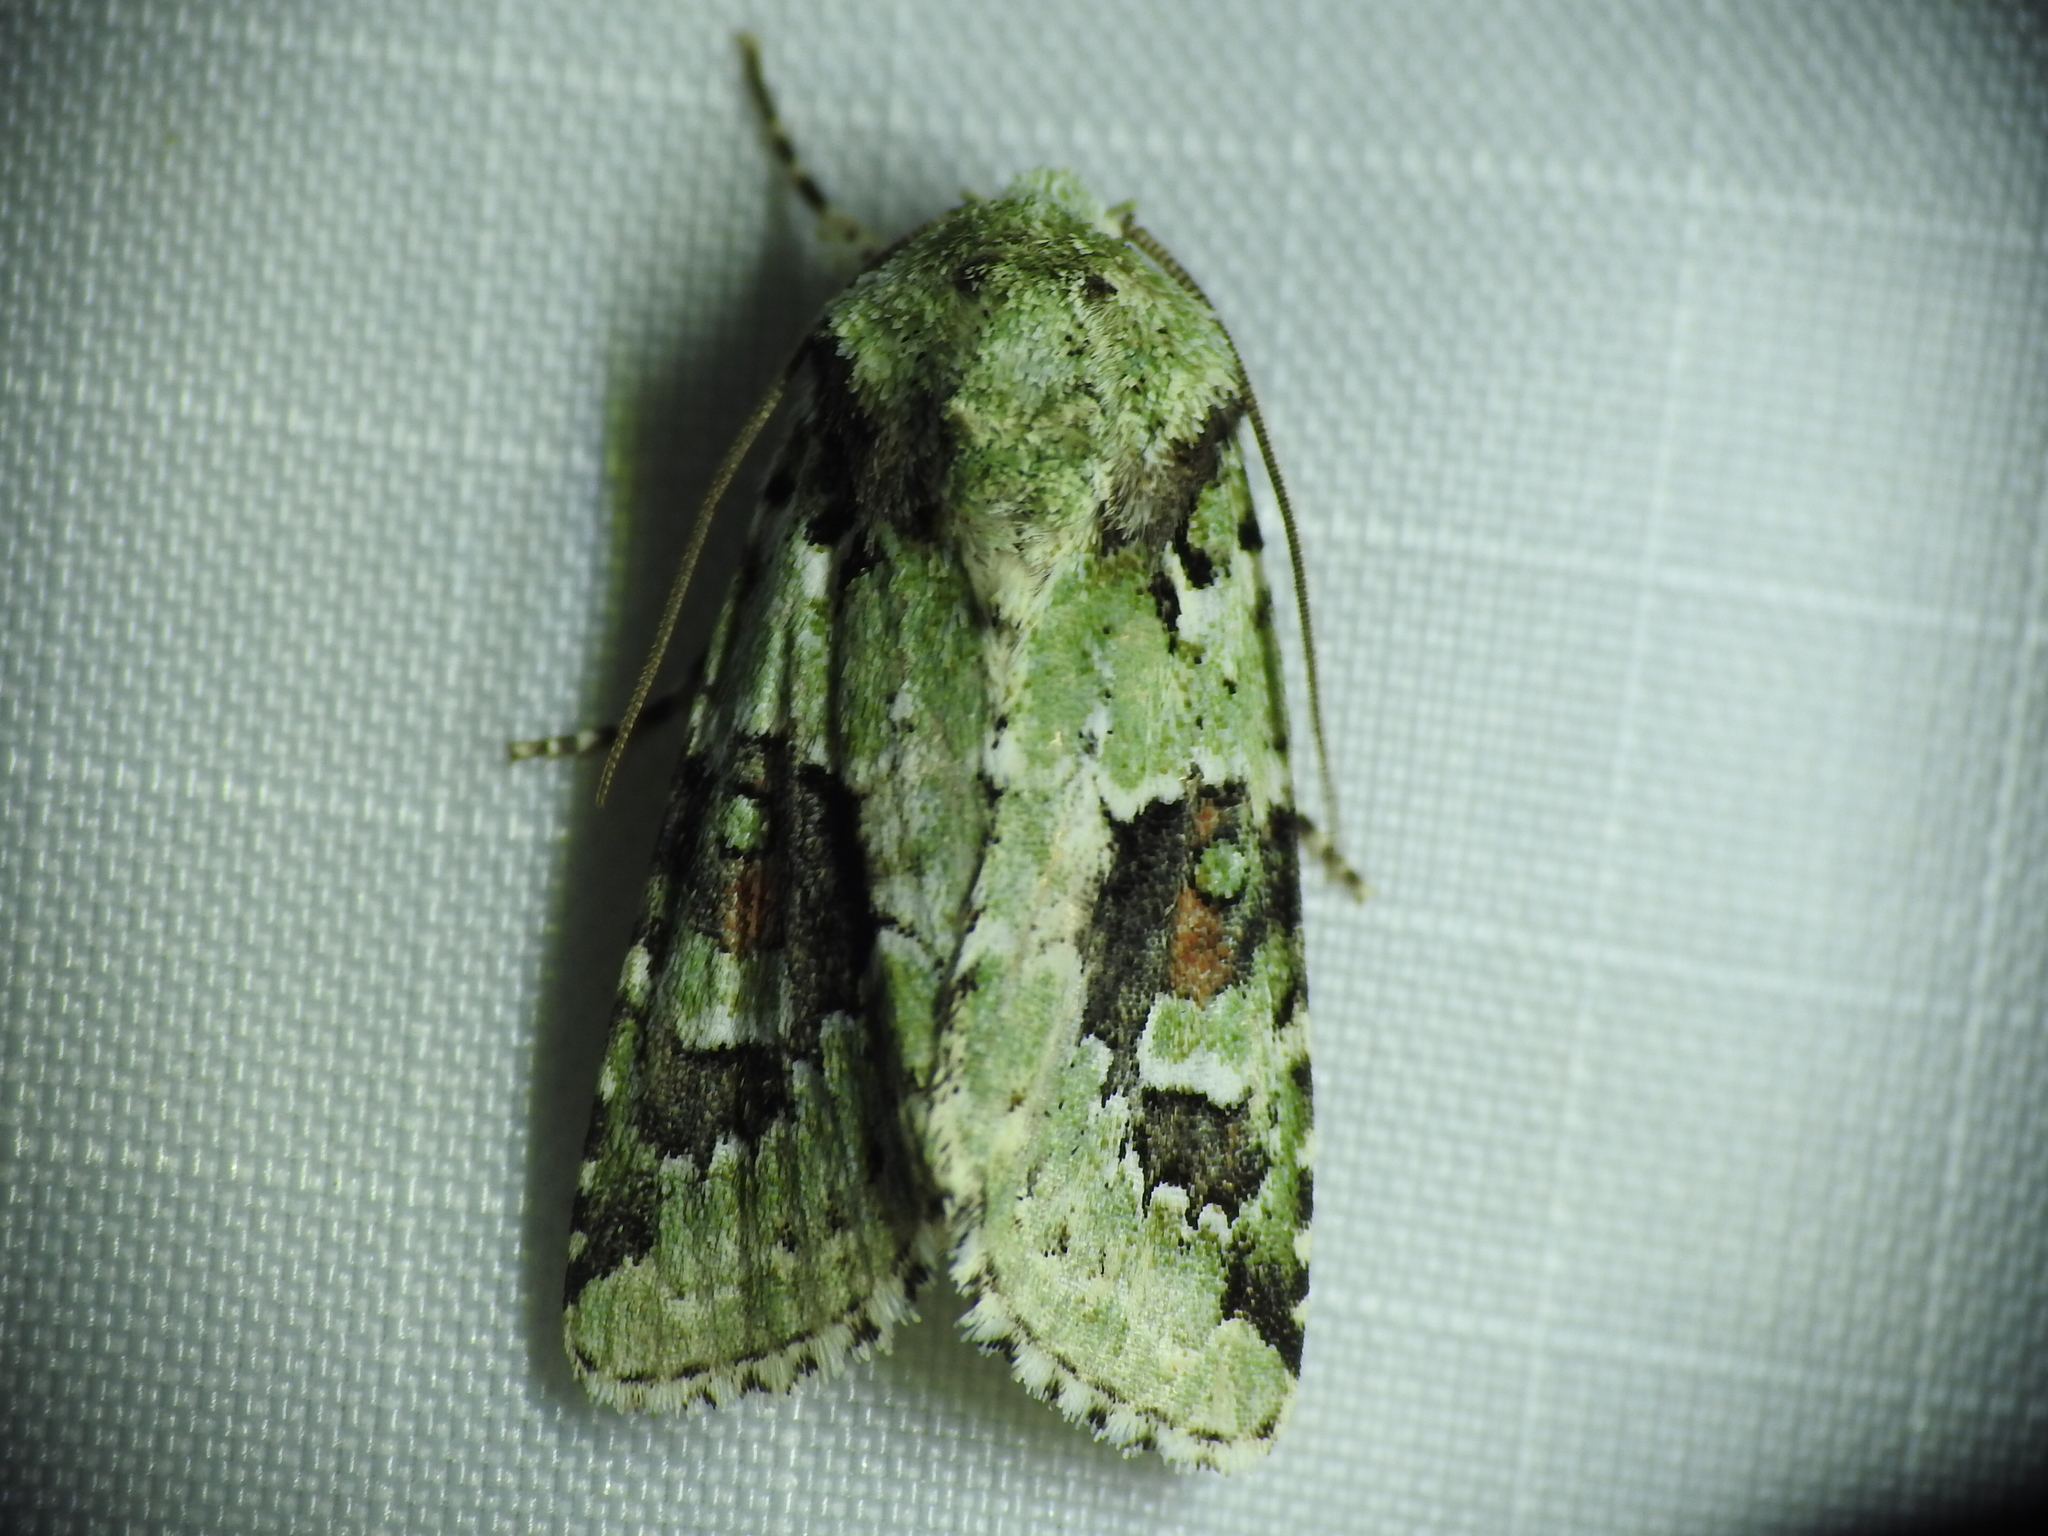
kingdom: Animalia
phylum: Arthropoda
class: Insecta
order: Lepidoptera
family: Noctuidae
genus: Lacinipolia
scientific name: Lacinipolia laudabilis
